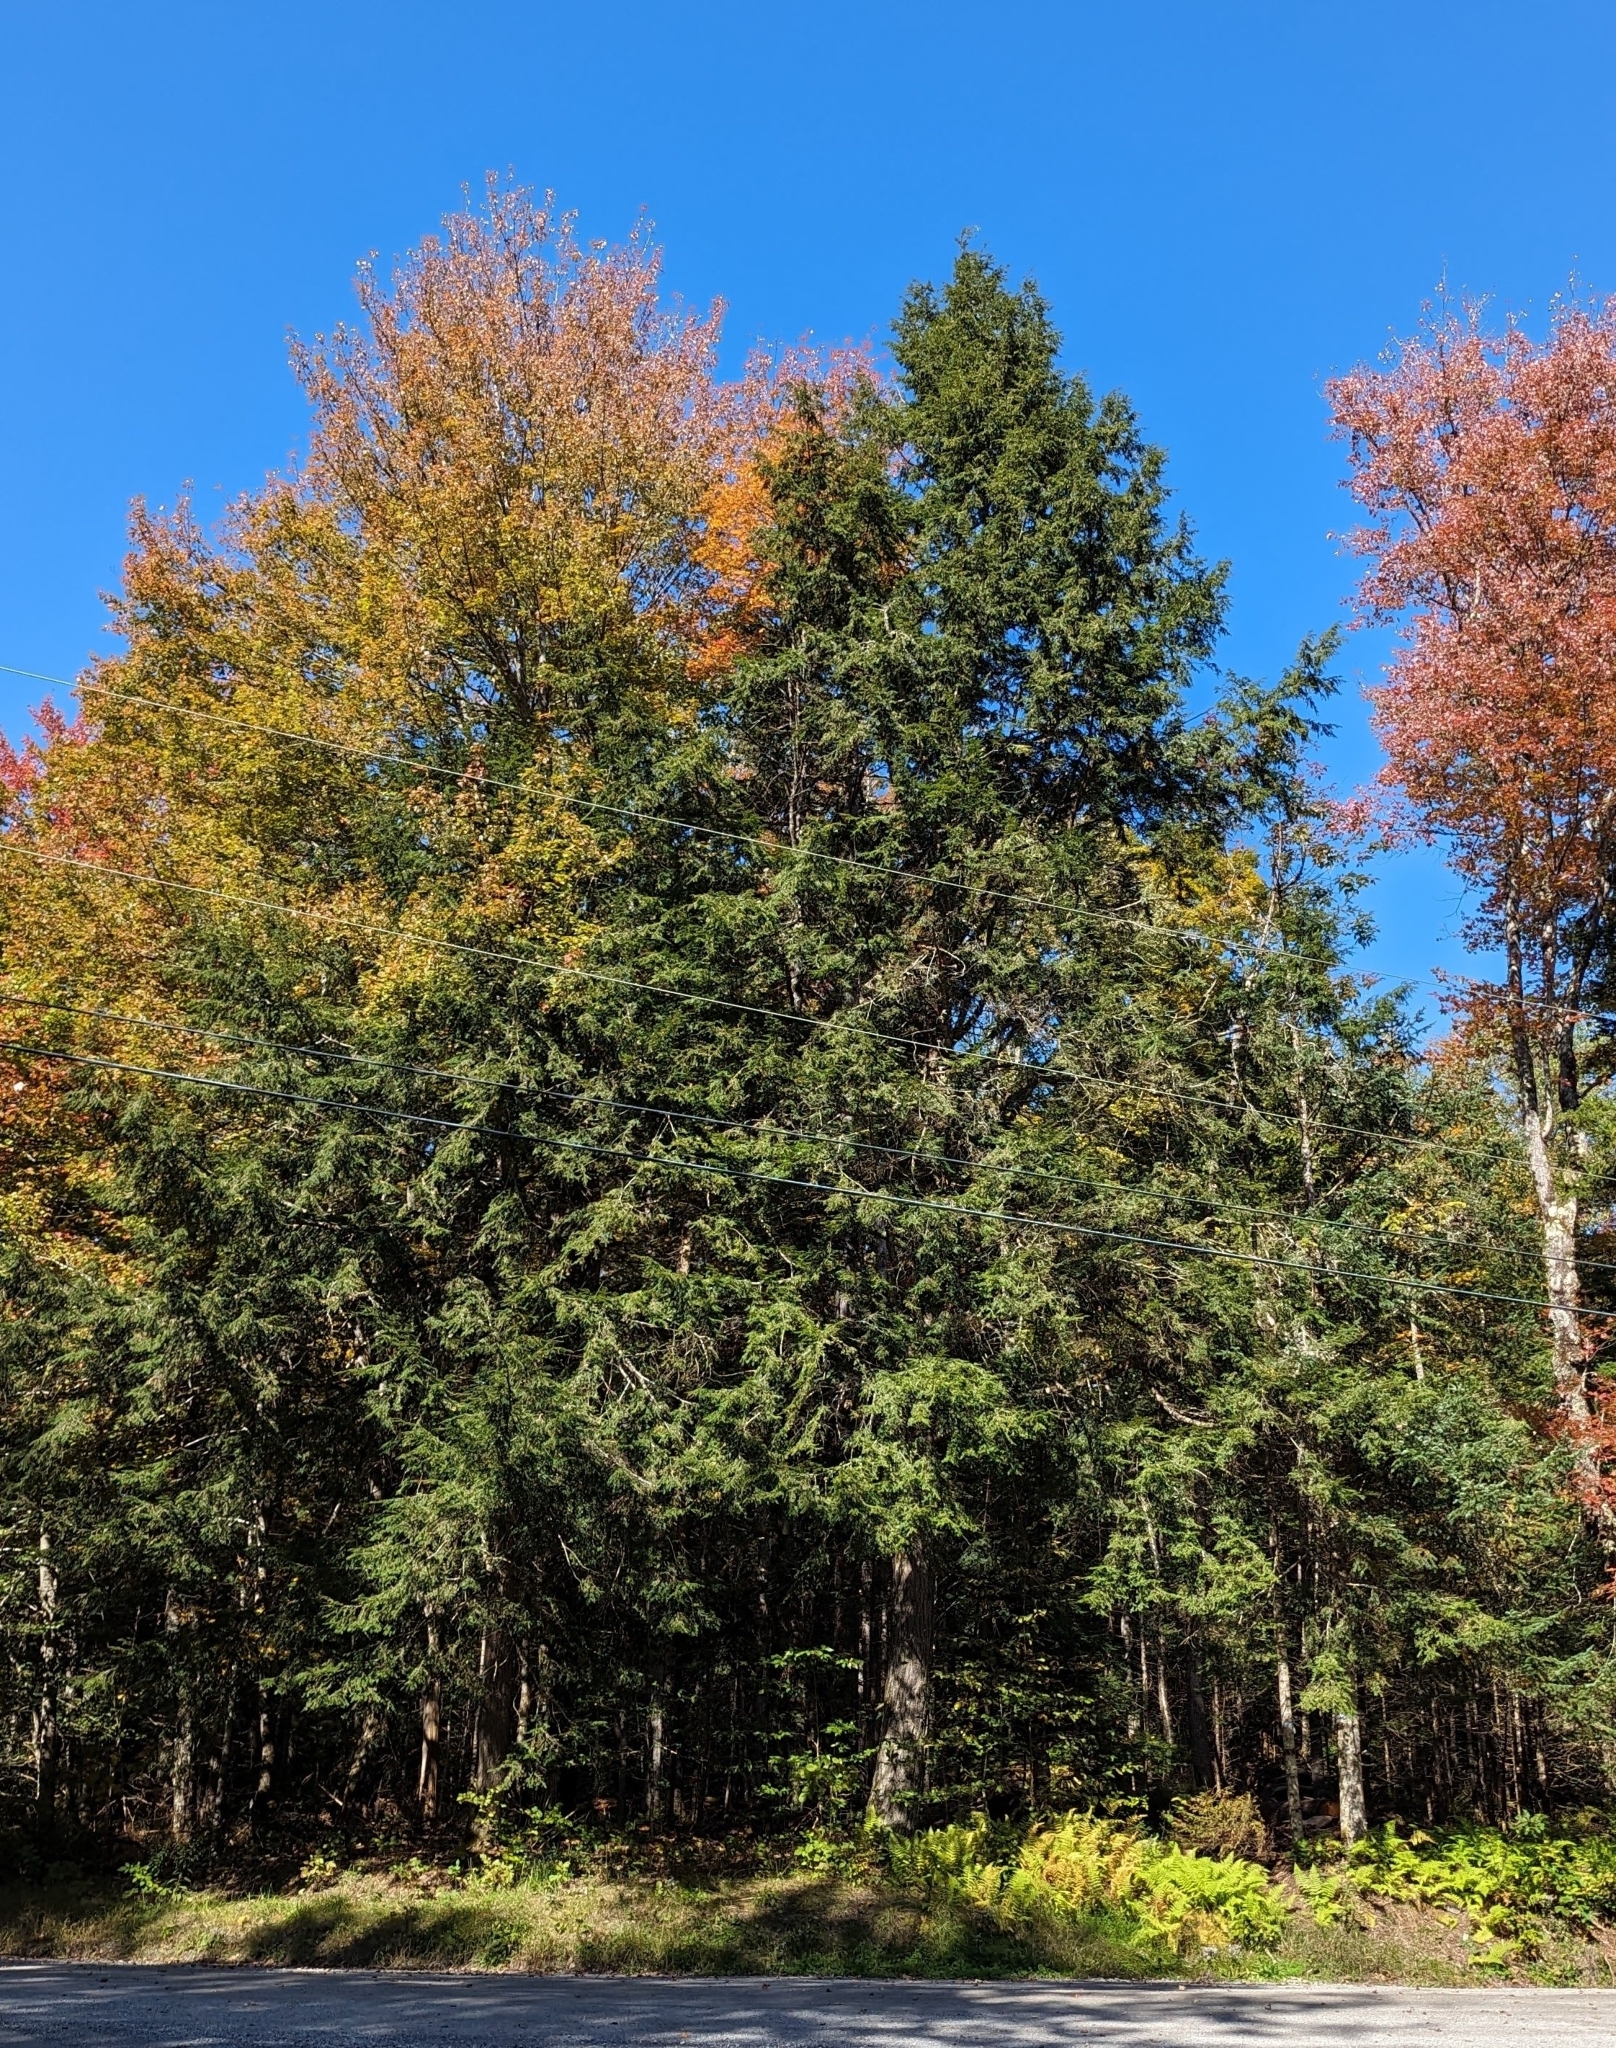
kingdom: Plantae
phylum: Tracheophyta
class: Pinopsida
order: Pinales
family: Pinaceae
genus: Tsuga
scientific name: Tsuga canadensis
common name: Eastern hemlock
